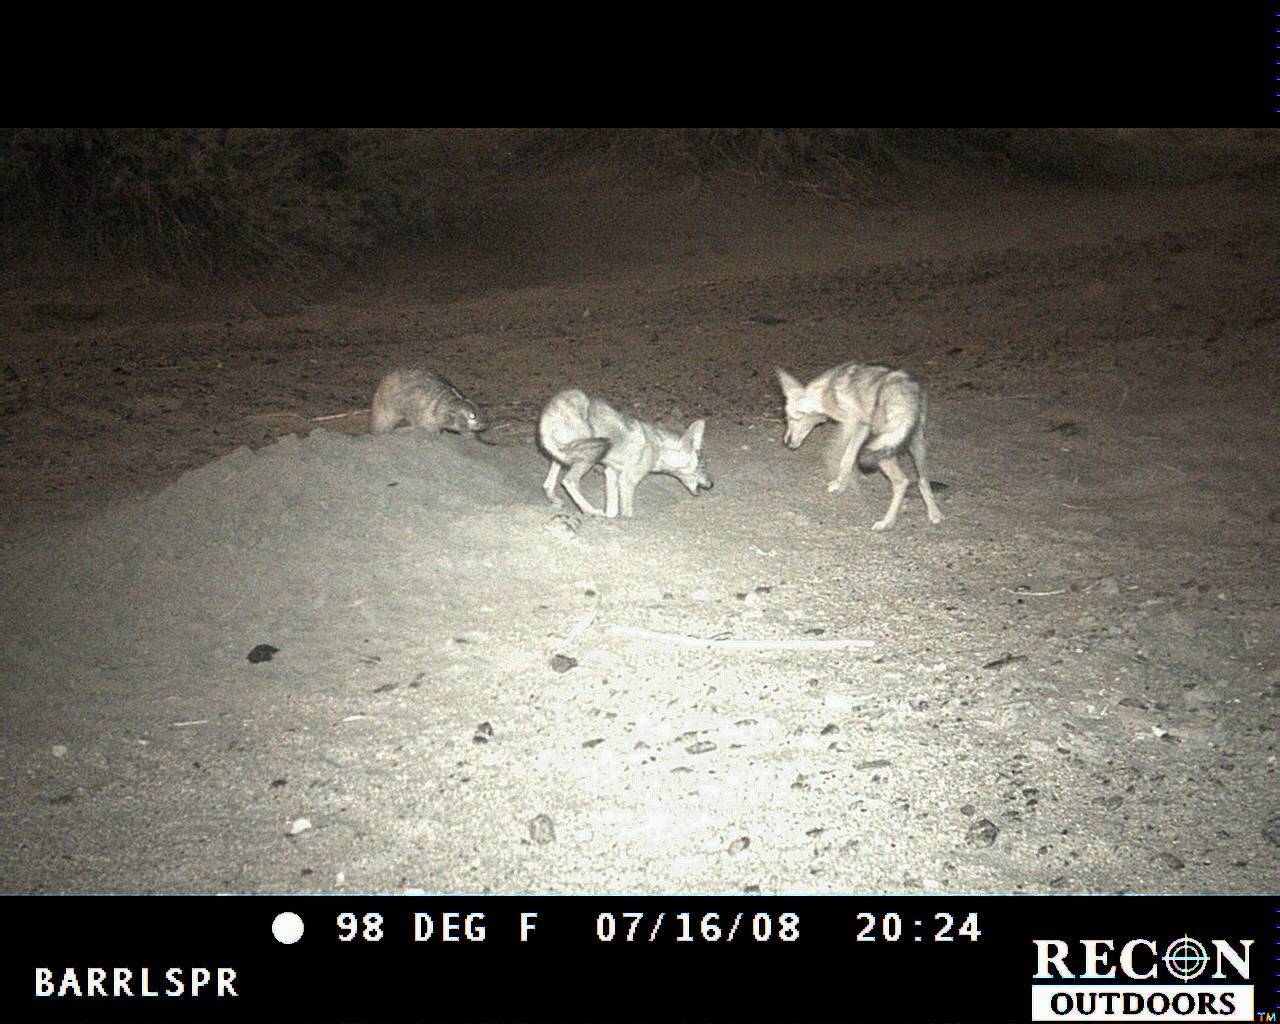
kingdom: Animalia
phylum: Chordata
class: Mammalia
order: Carnivora
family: Mustelidae
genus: Taxidea
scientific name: Taxidea taxus
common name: American badger
